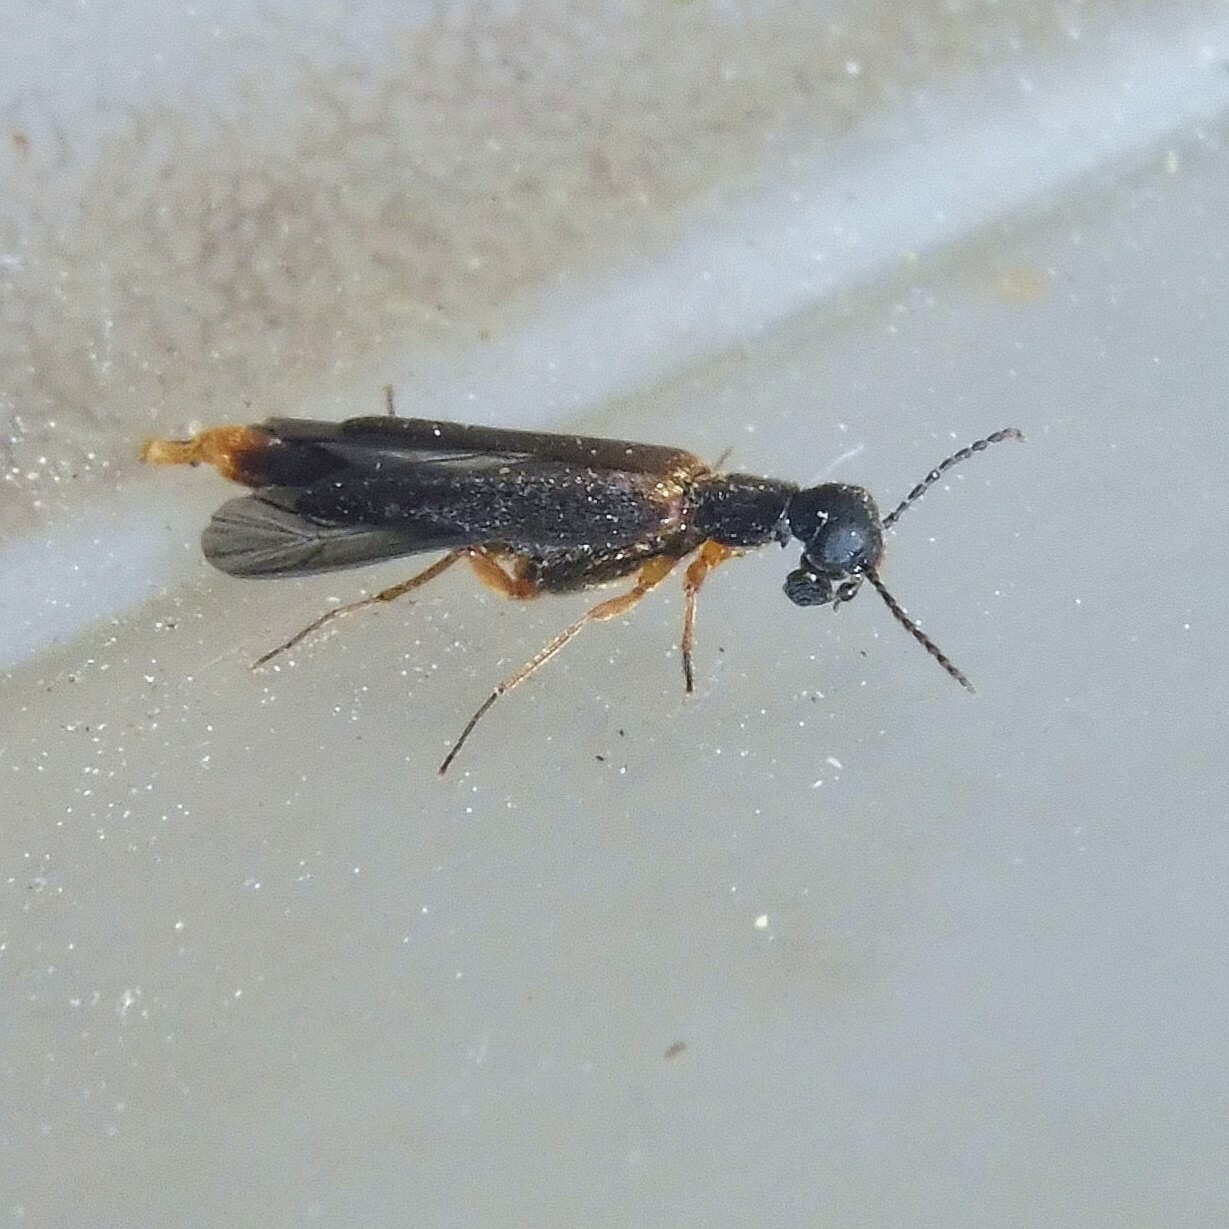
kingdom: Animalia
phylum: Arthropoda
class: Insecta
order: Coleoptera
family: Lymexylidae
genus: Lymexylon
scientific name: Lymexylon navale
